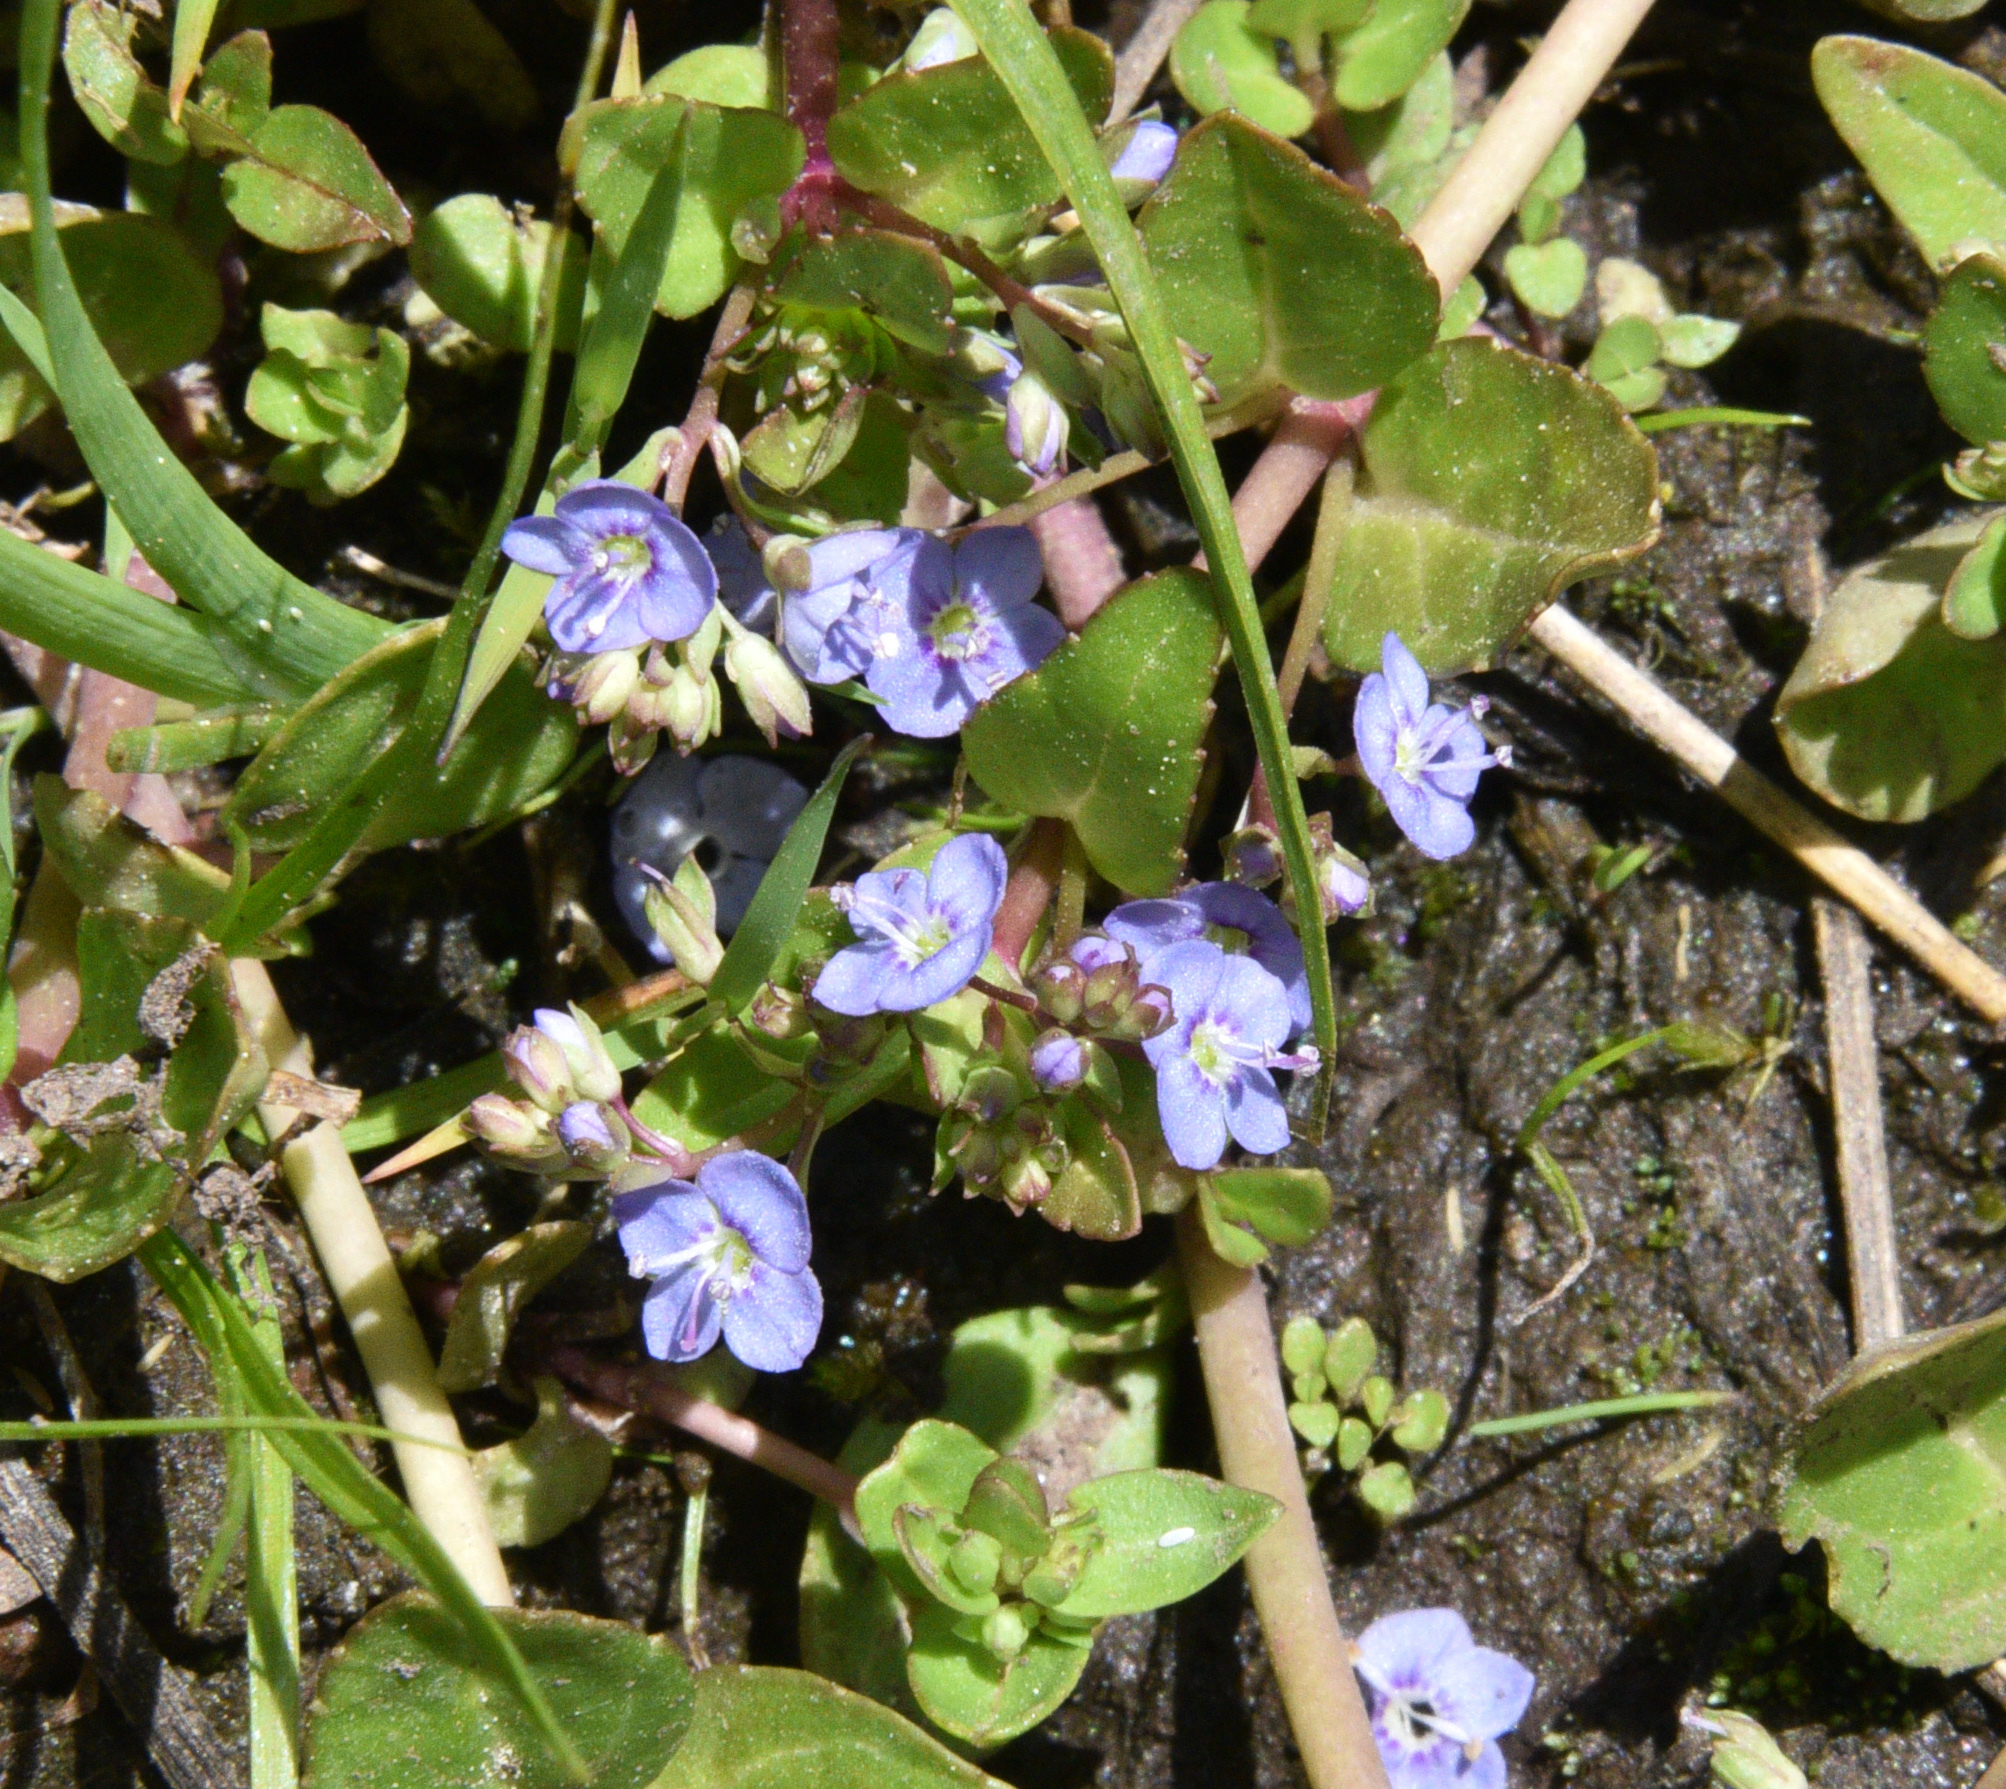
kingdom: Plantae
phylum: Tracheophyta
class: Magnoliopsida
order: Lamiales
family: Plantaginaceae
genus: Veronica
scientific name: Veronica americana
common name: American brooklime
